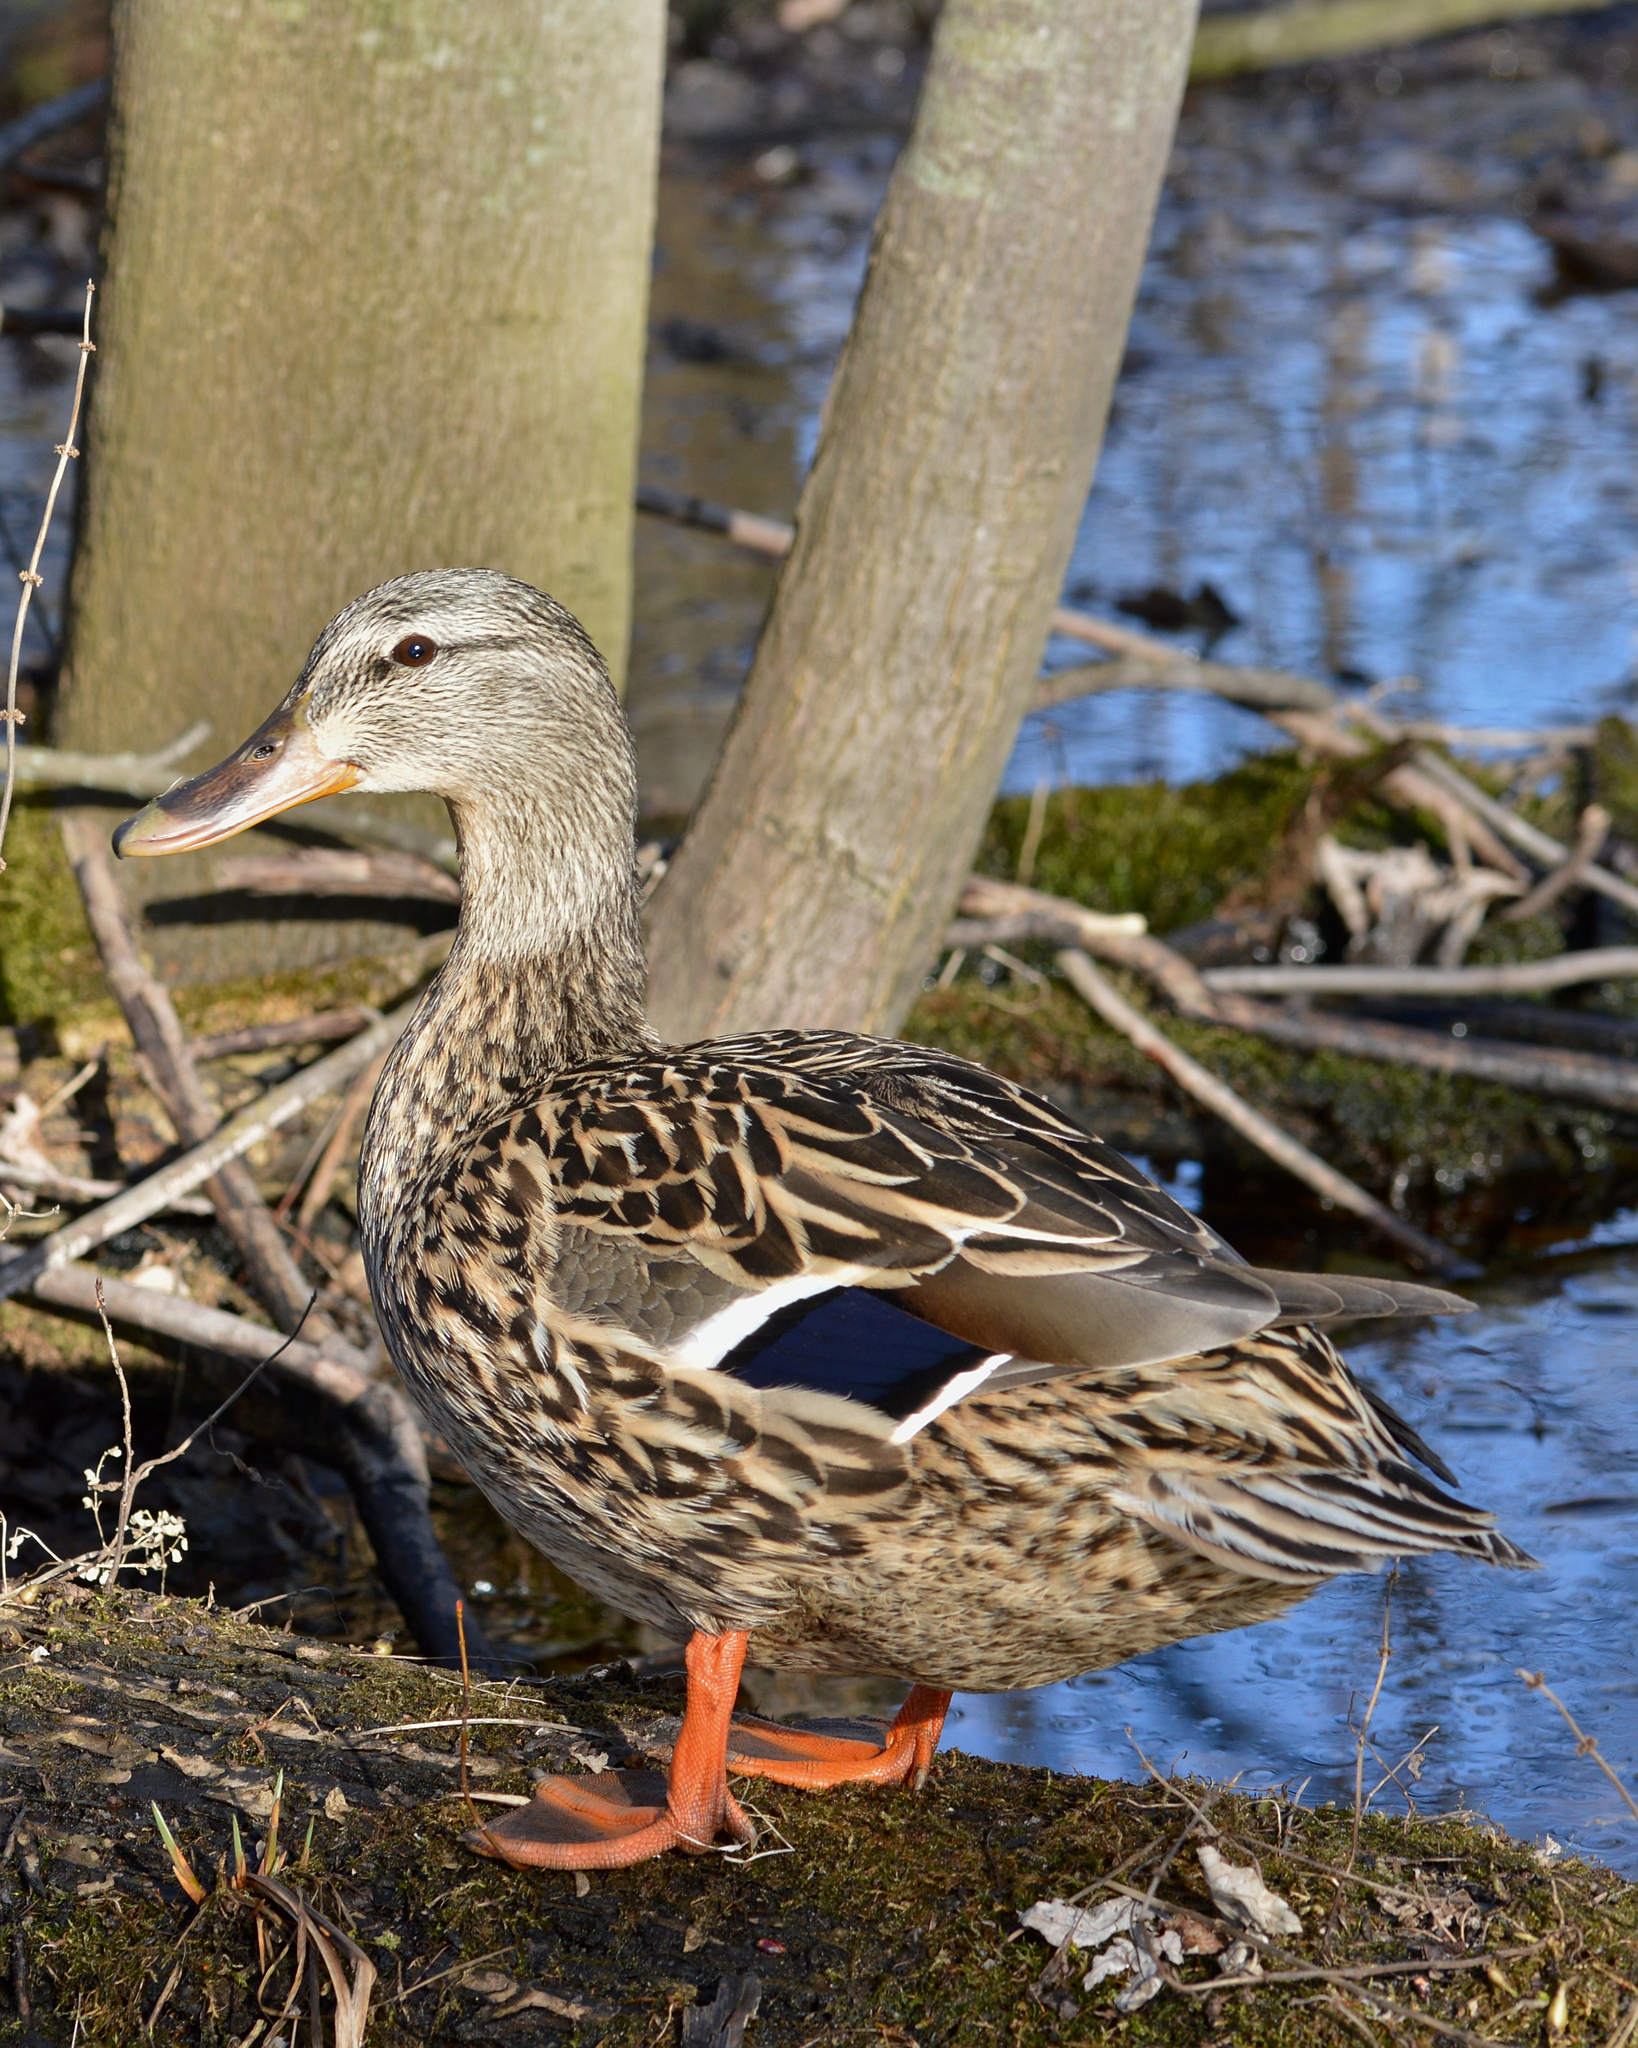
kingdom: Animalia
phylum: Chordata
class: Aves
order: Anseriformes
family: Anatidae
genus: Anas
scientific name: Anas platyrhynchos
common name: Mallard
